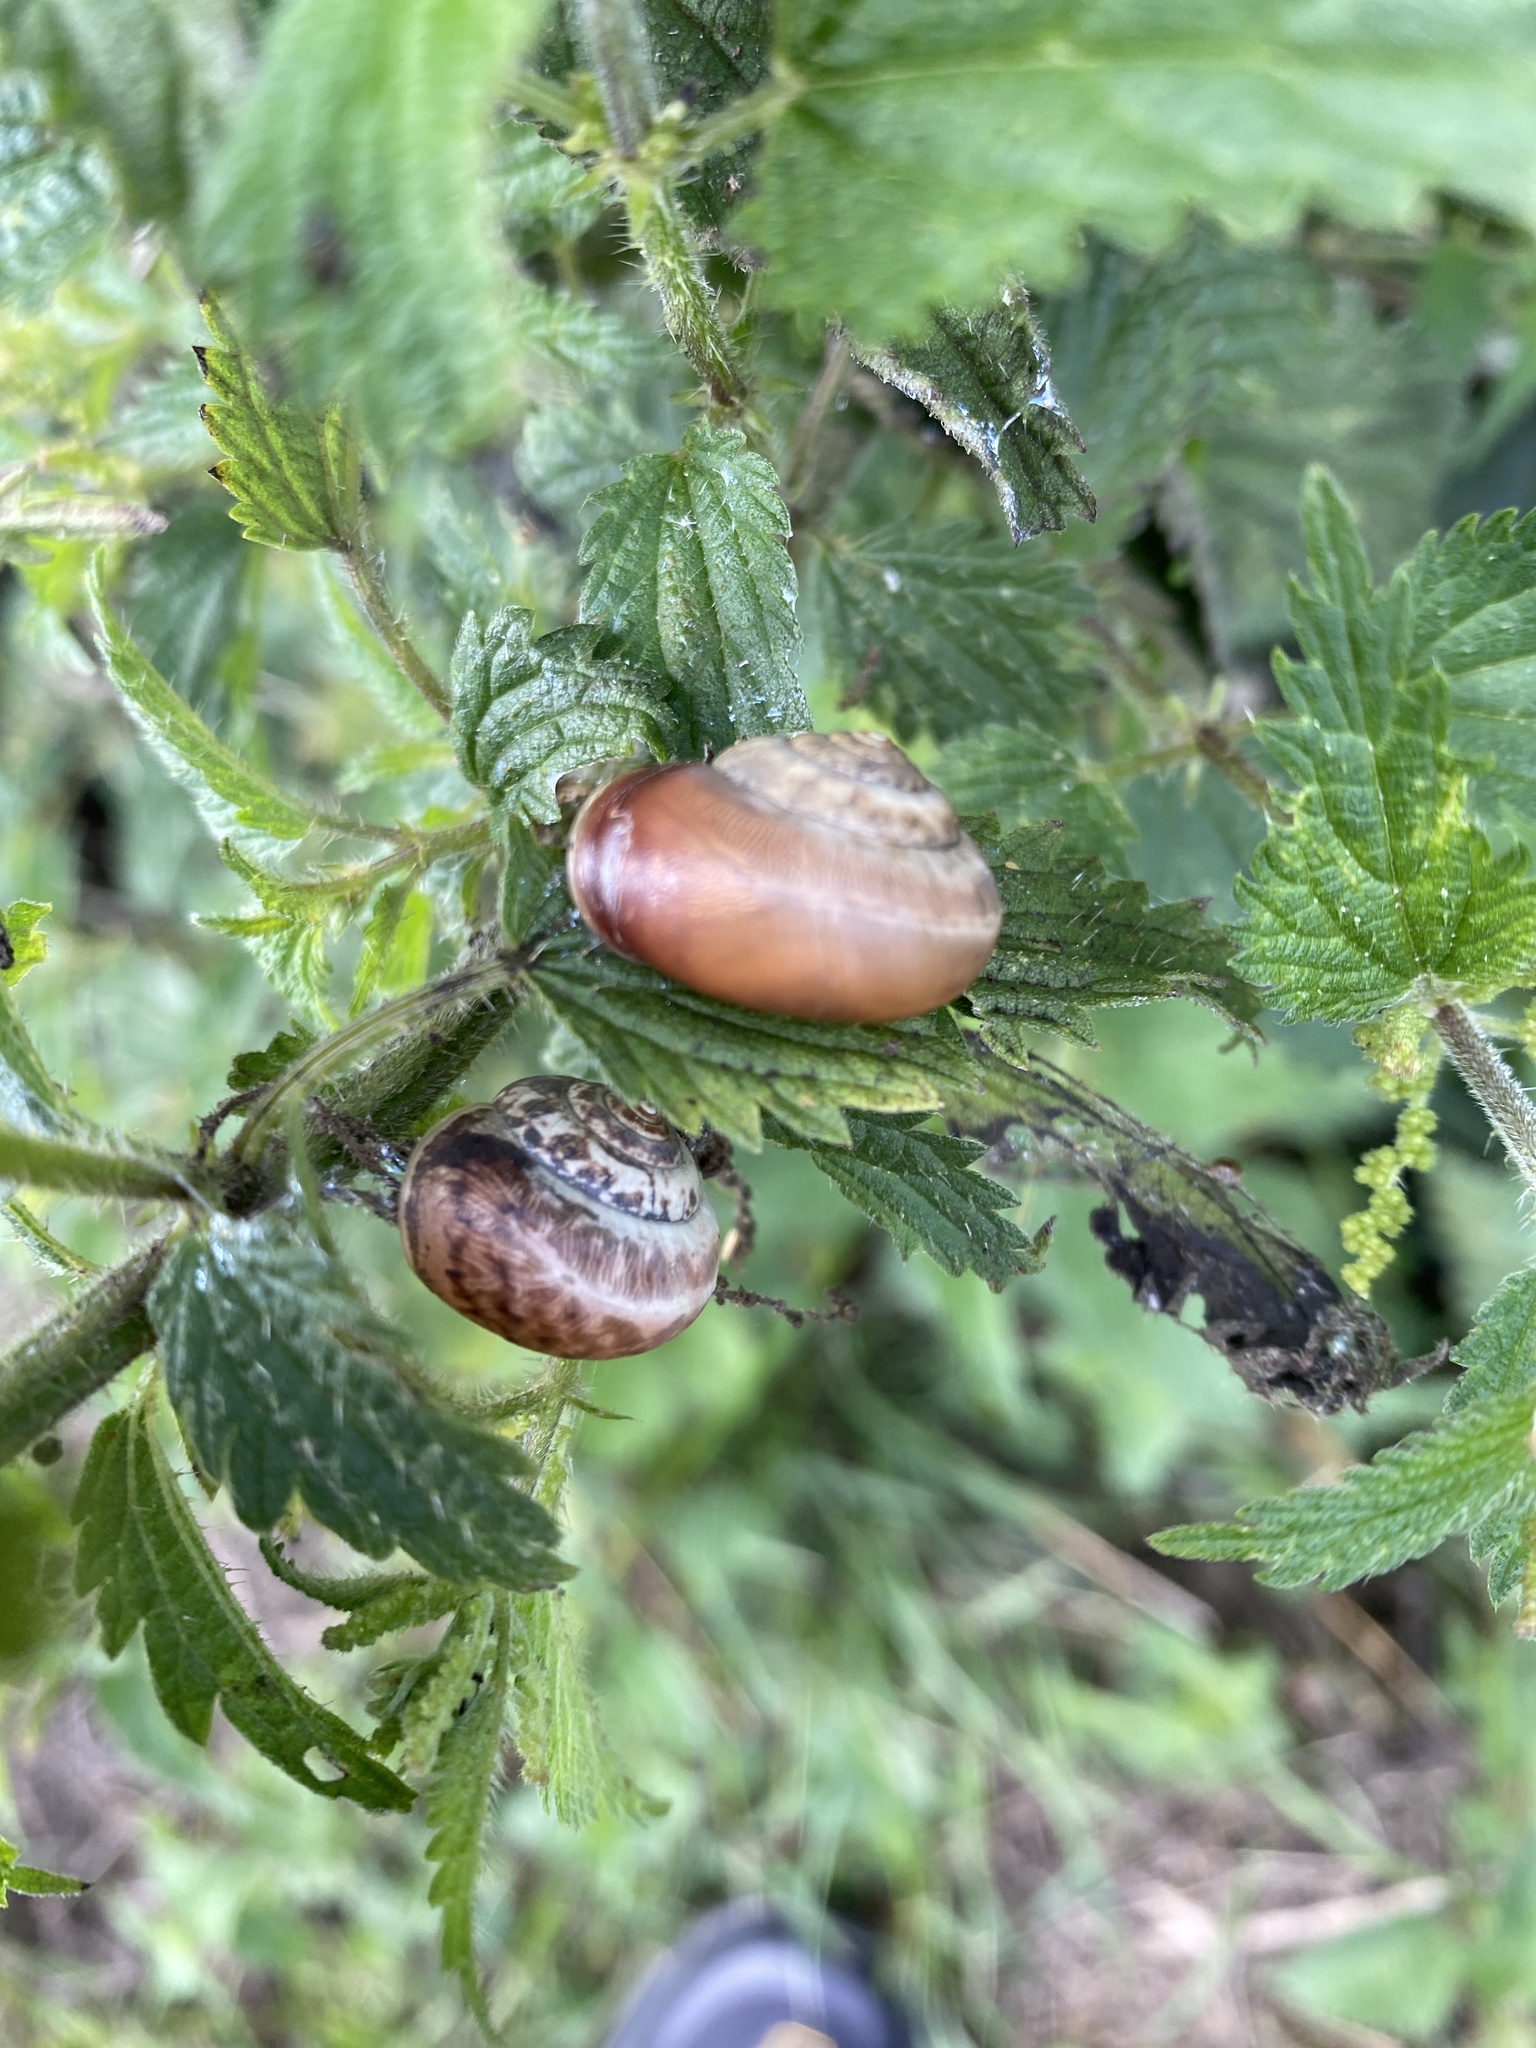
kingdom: Animalia
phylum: Mollusca
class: Gastropoda
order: Stylommatophora
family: Hygromiidae
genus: Monacha
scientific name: Monacha cantiana
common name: Kentish snail
